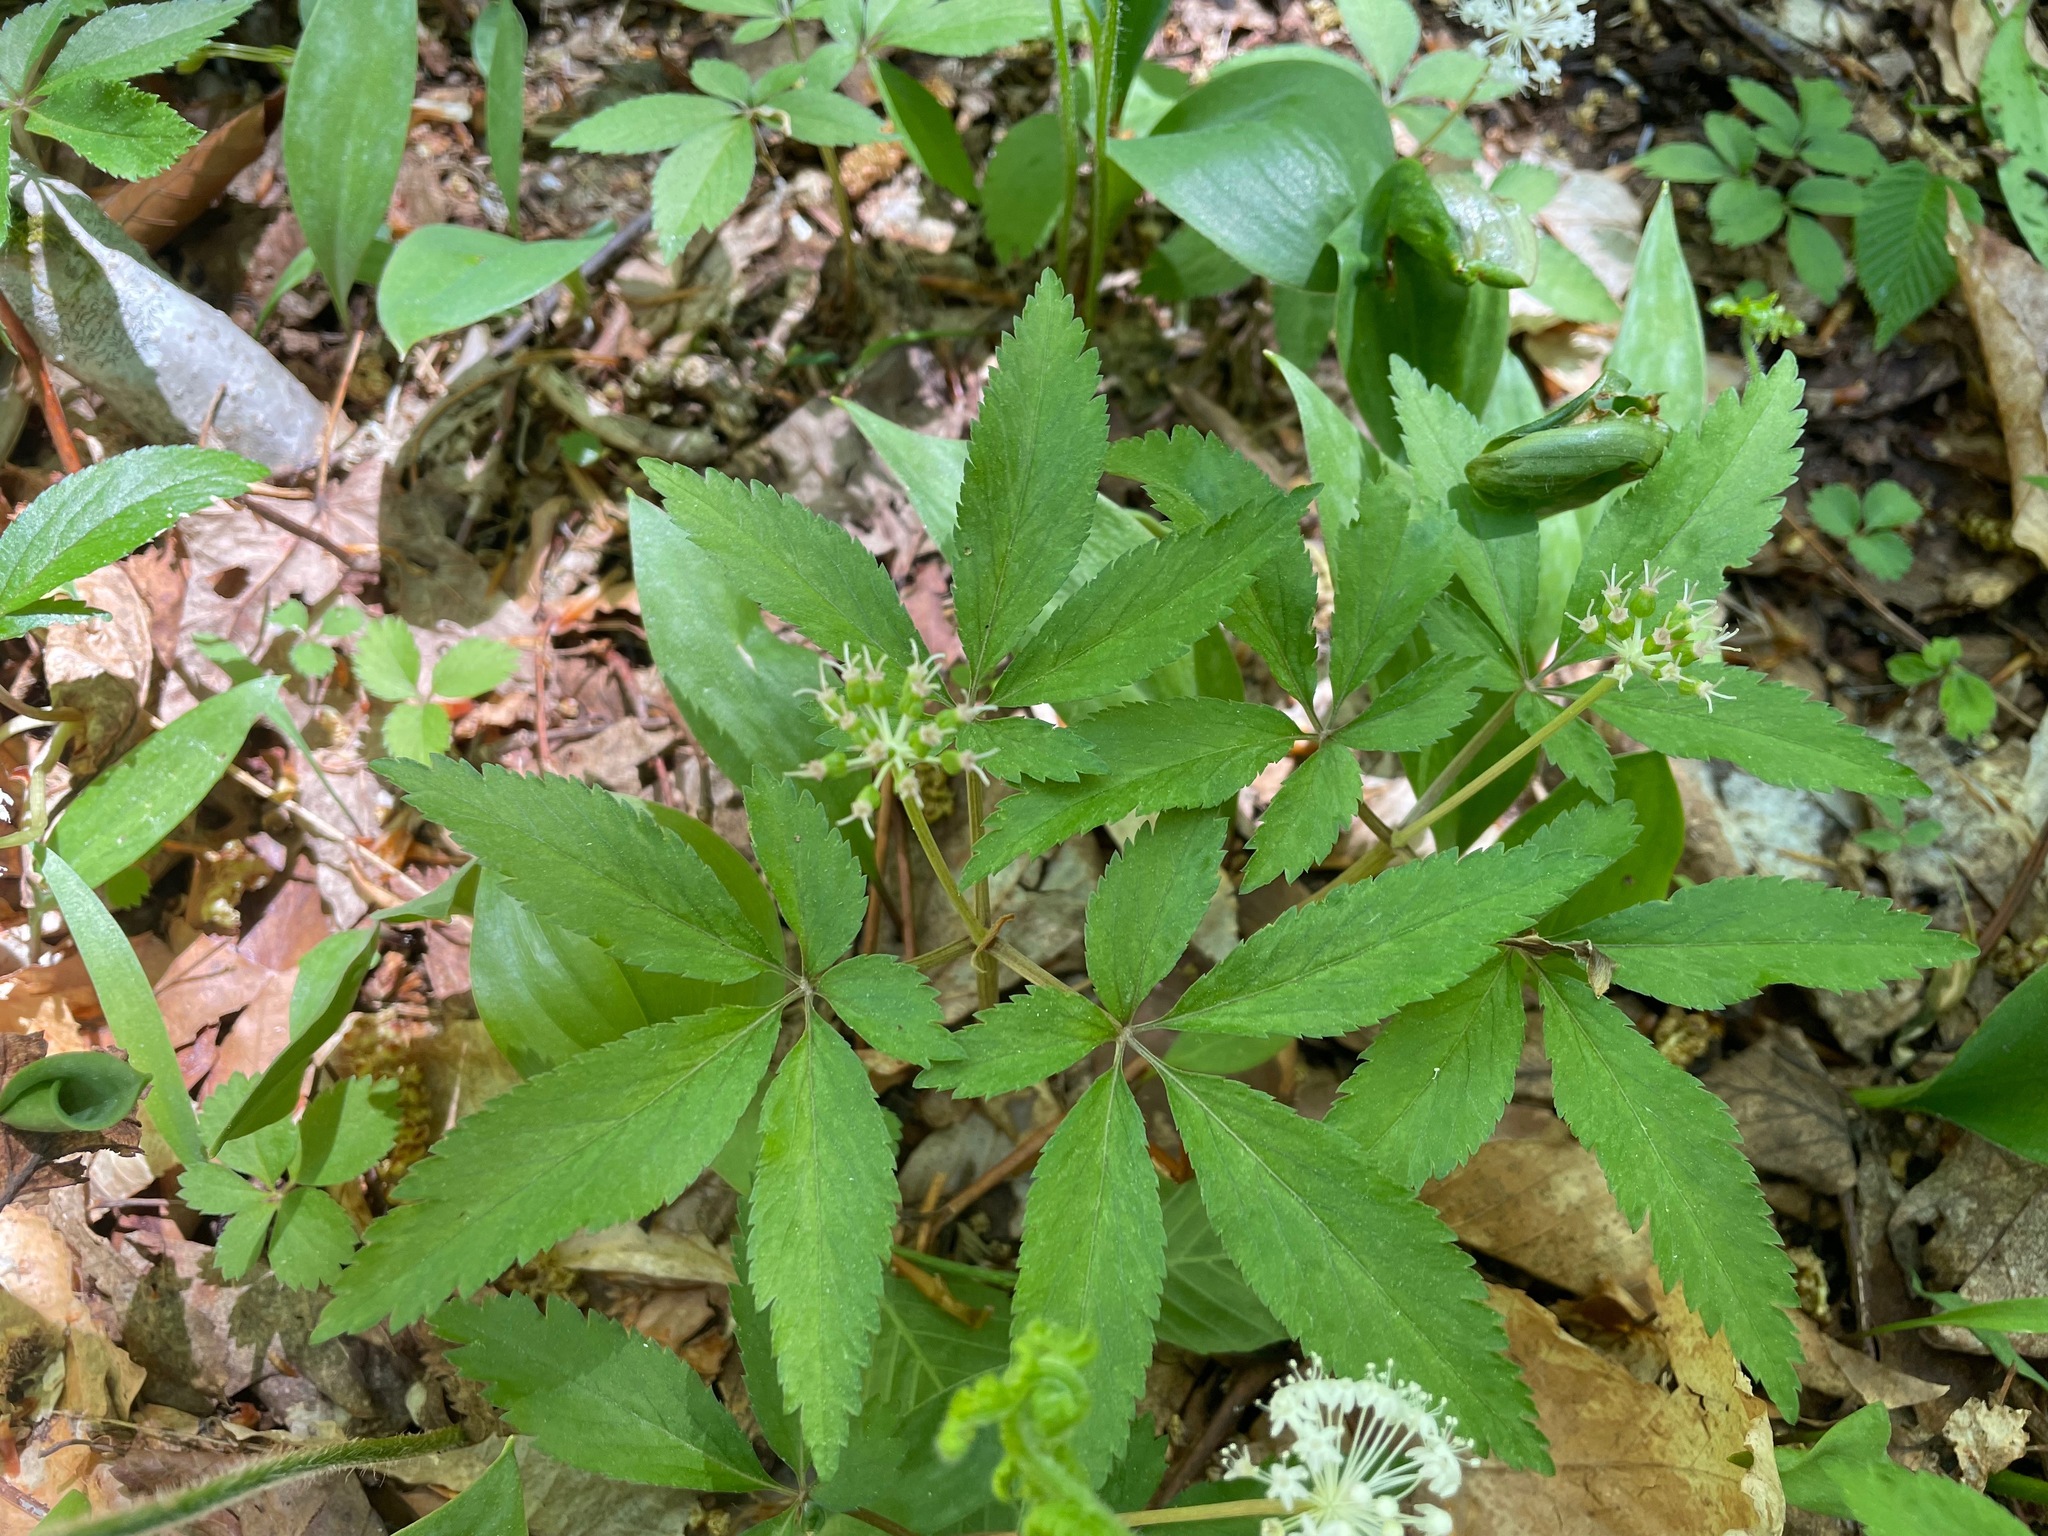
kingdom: Plantae
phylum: Tracheophyta
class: Magnoliopsida
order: Apiales
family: Araliaceae
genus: Panax
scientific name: Panax trifolius
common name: Dwarf ginseng
